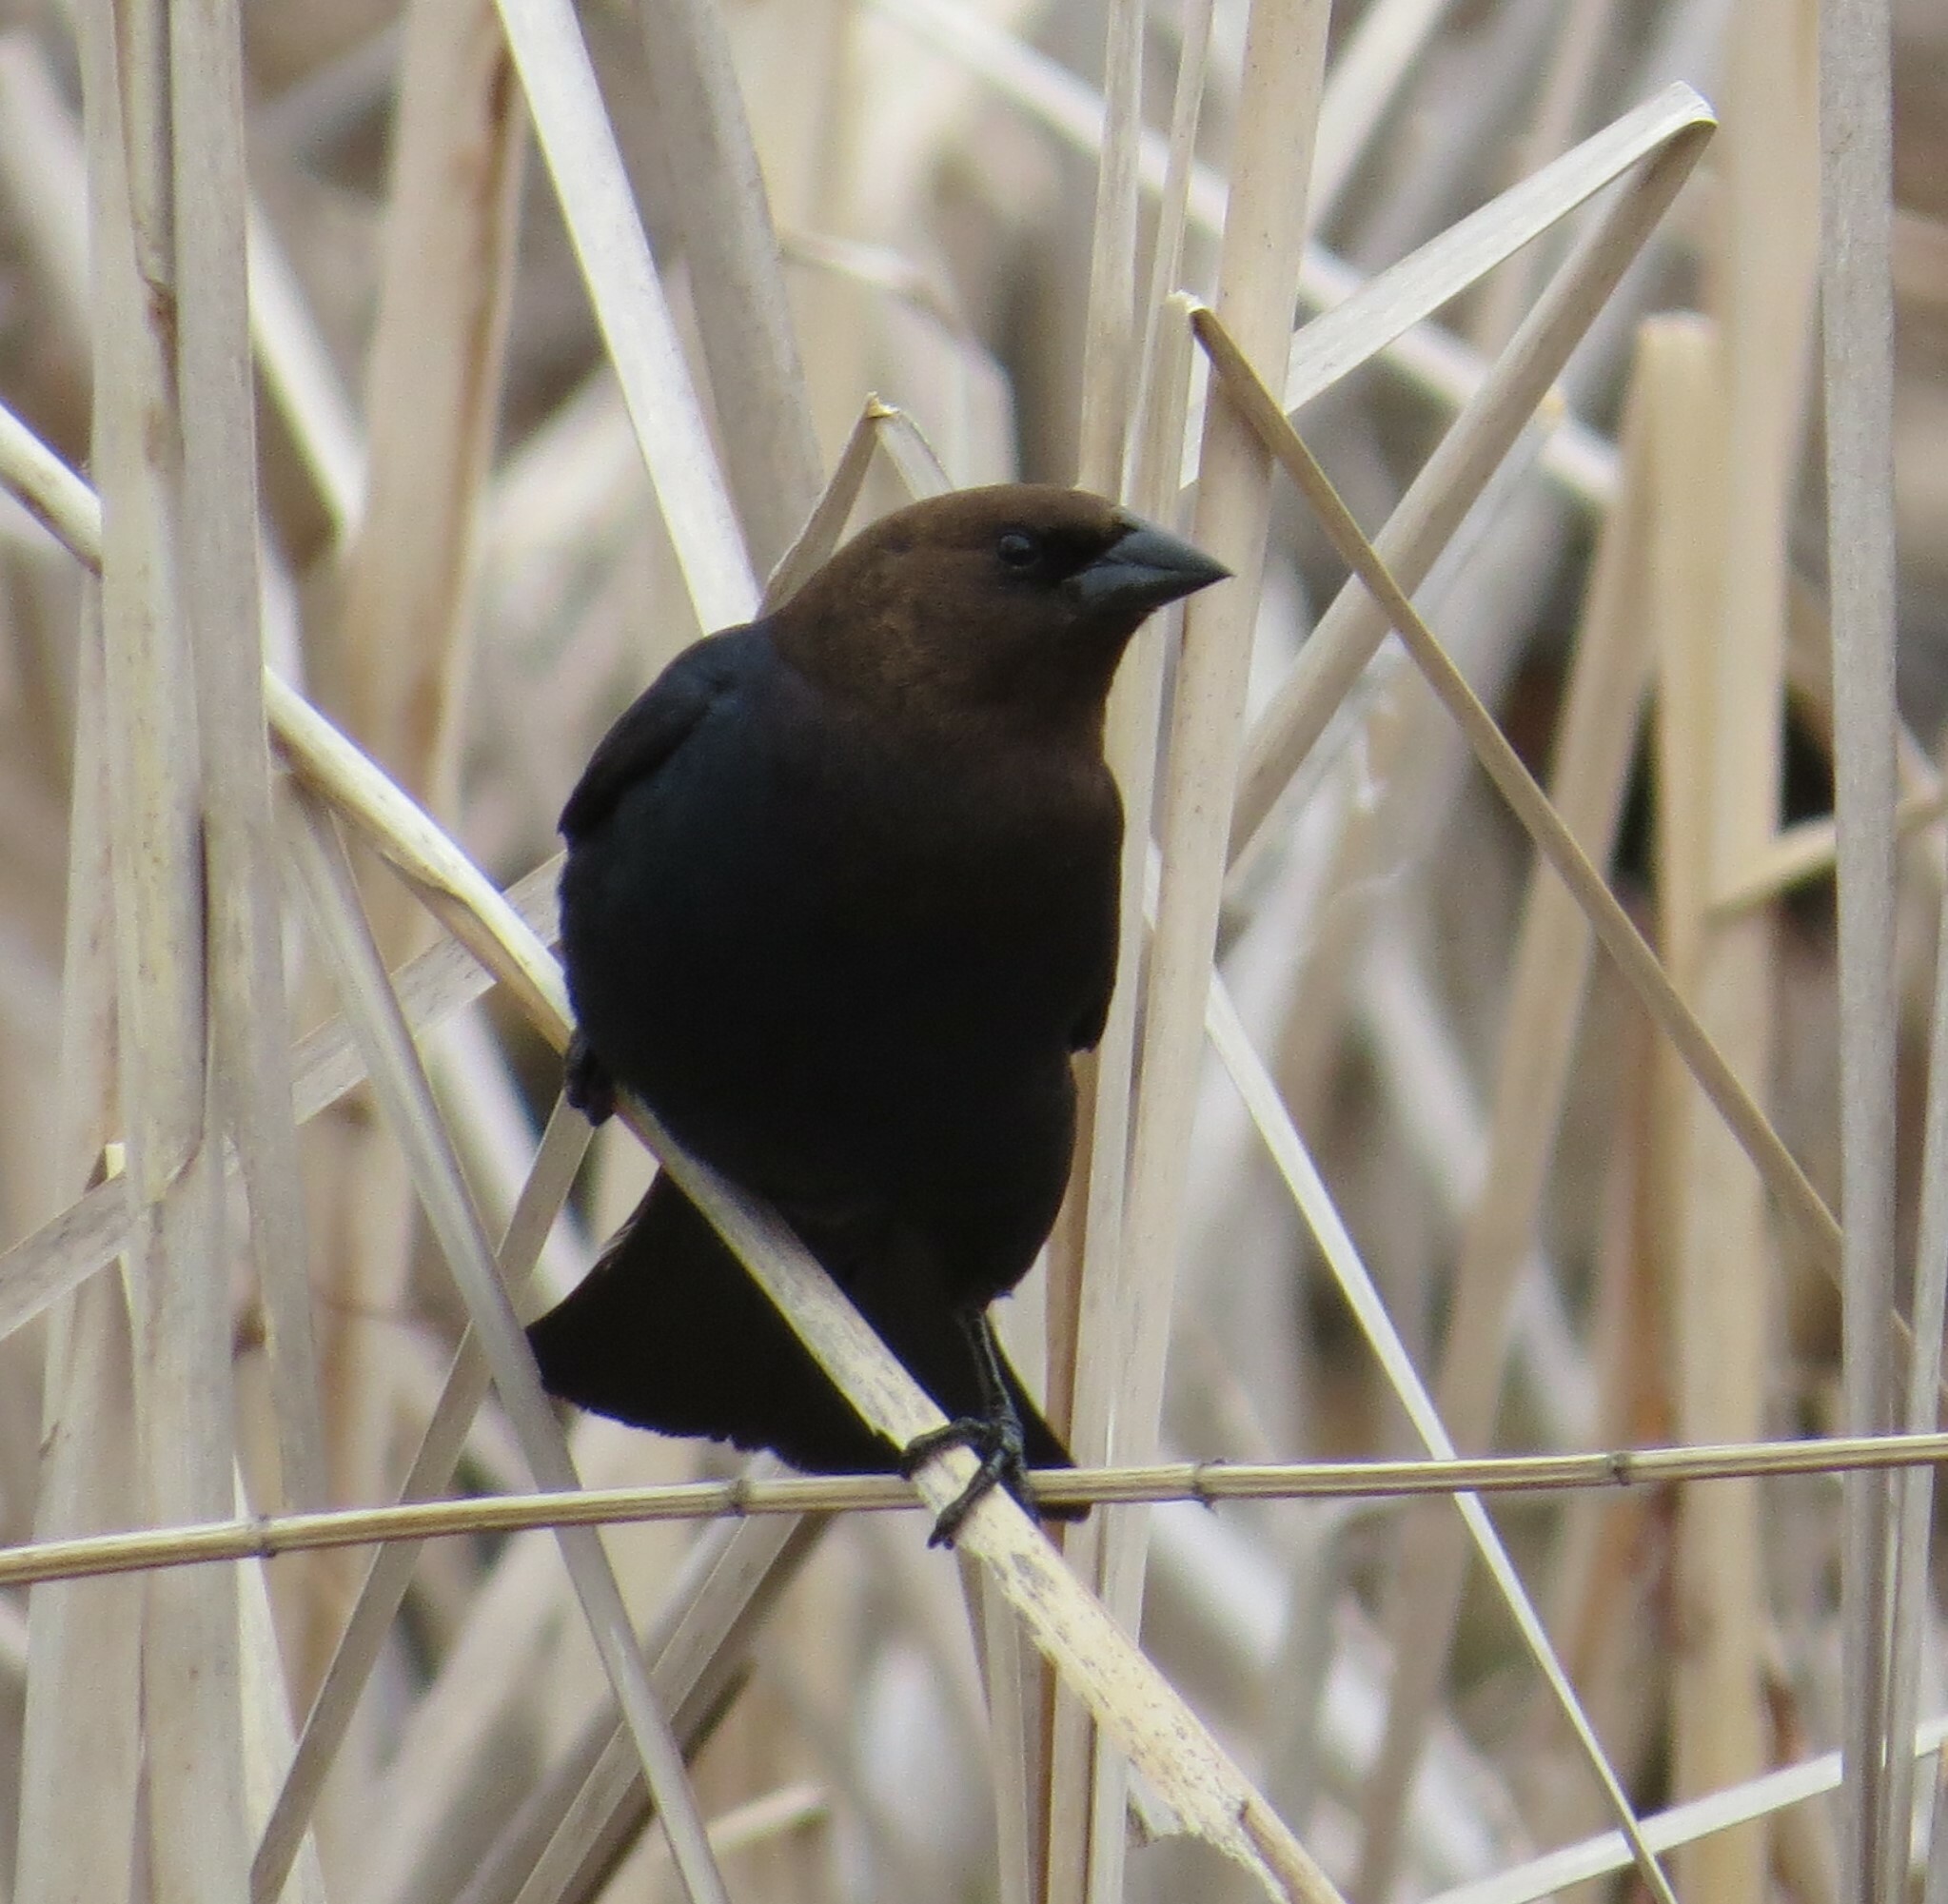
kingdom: Animalia
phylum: Chordata
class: Aves
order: Passeriformes
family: Icteridae
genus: Molothrus
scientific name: Molothrus ater
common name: Brown-headed cowbird
